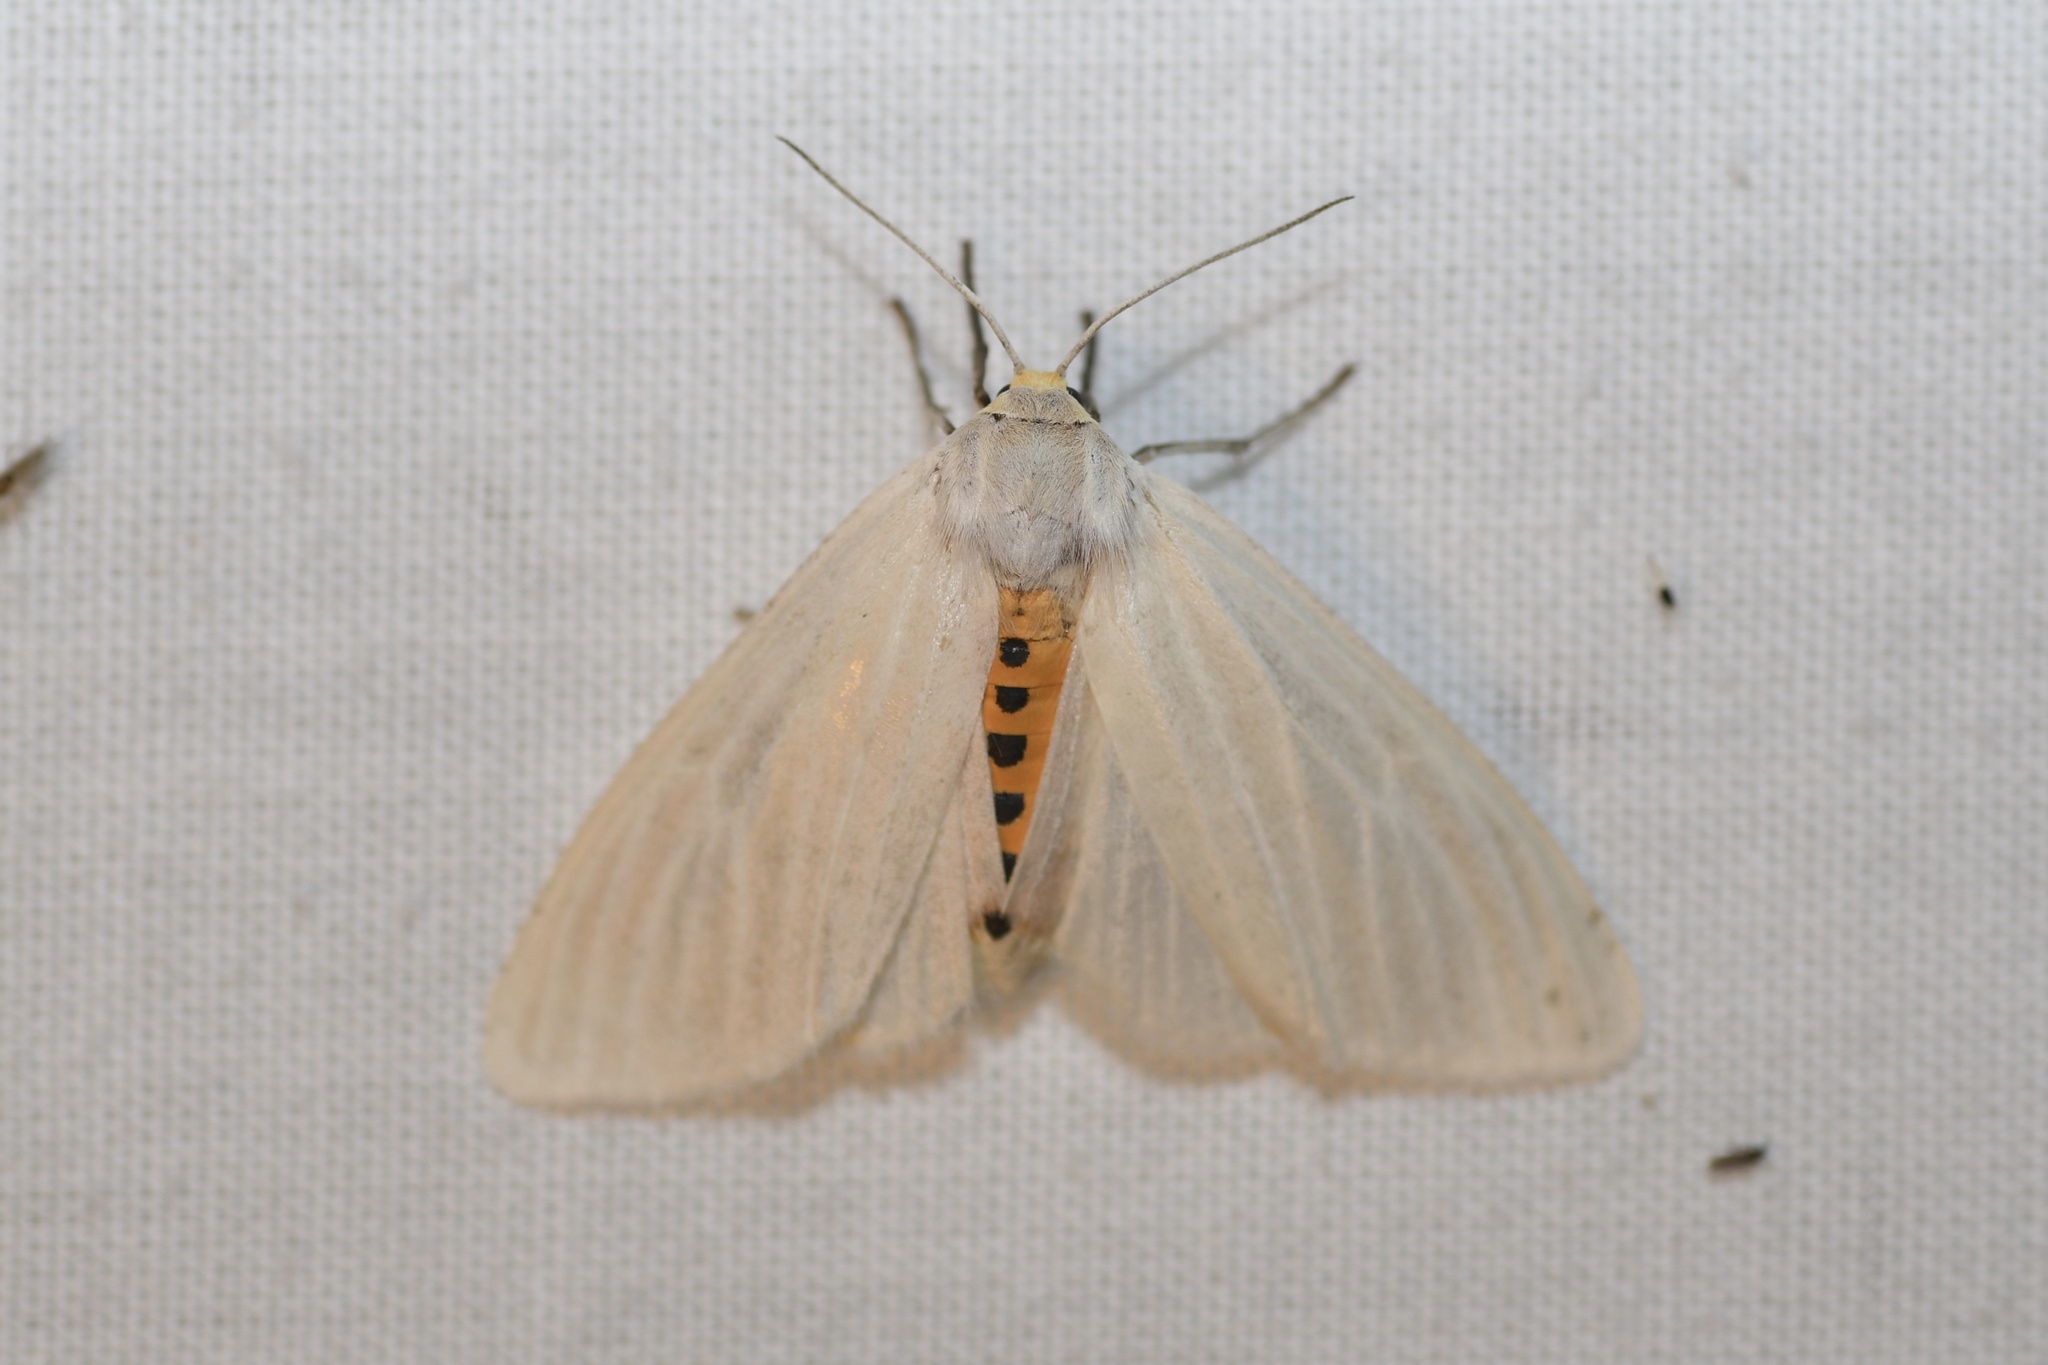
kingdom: Animalia
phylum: Arthropoda
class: Insecta
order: Lepidoptera
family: Erebidae
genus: Cycnia
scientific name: Cycnia oregonensis
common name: Oregon cycnia moth
